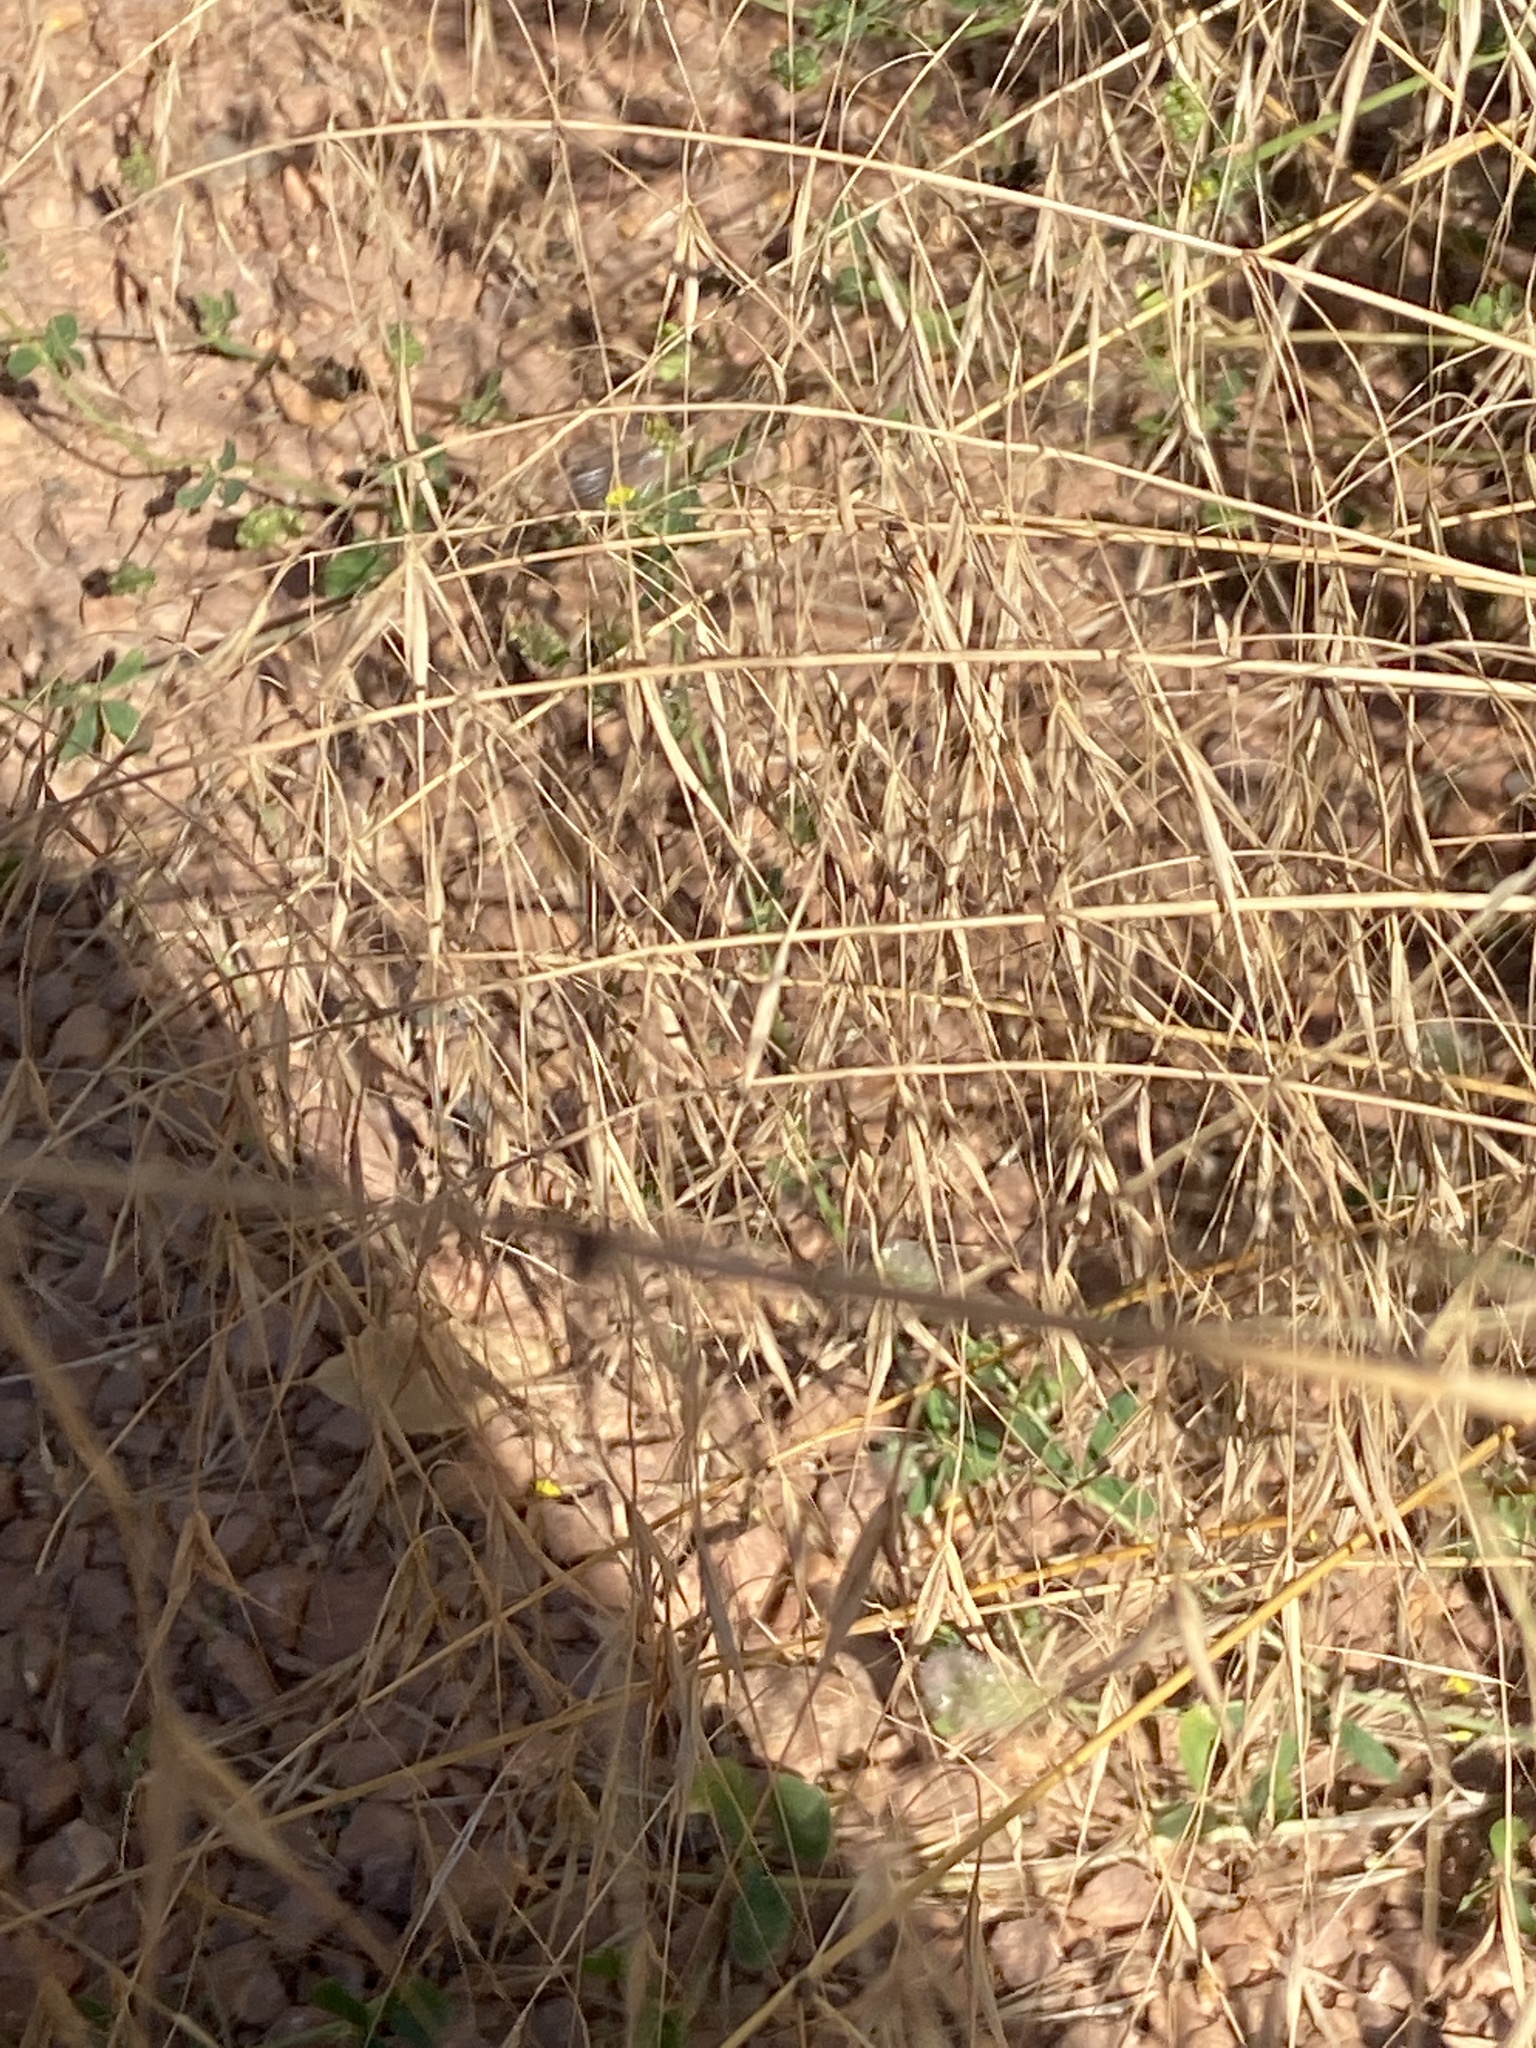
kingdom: Plantae
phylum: Tracheophyta
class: Liliopsida
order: Poales
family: Poaceae
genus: Bromus
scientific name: Bromus sterilis
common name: Poverty brome
